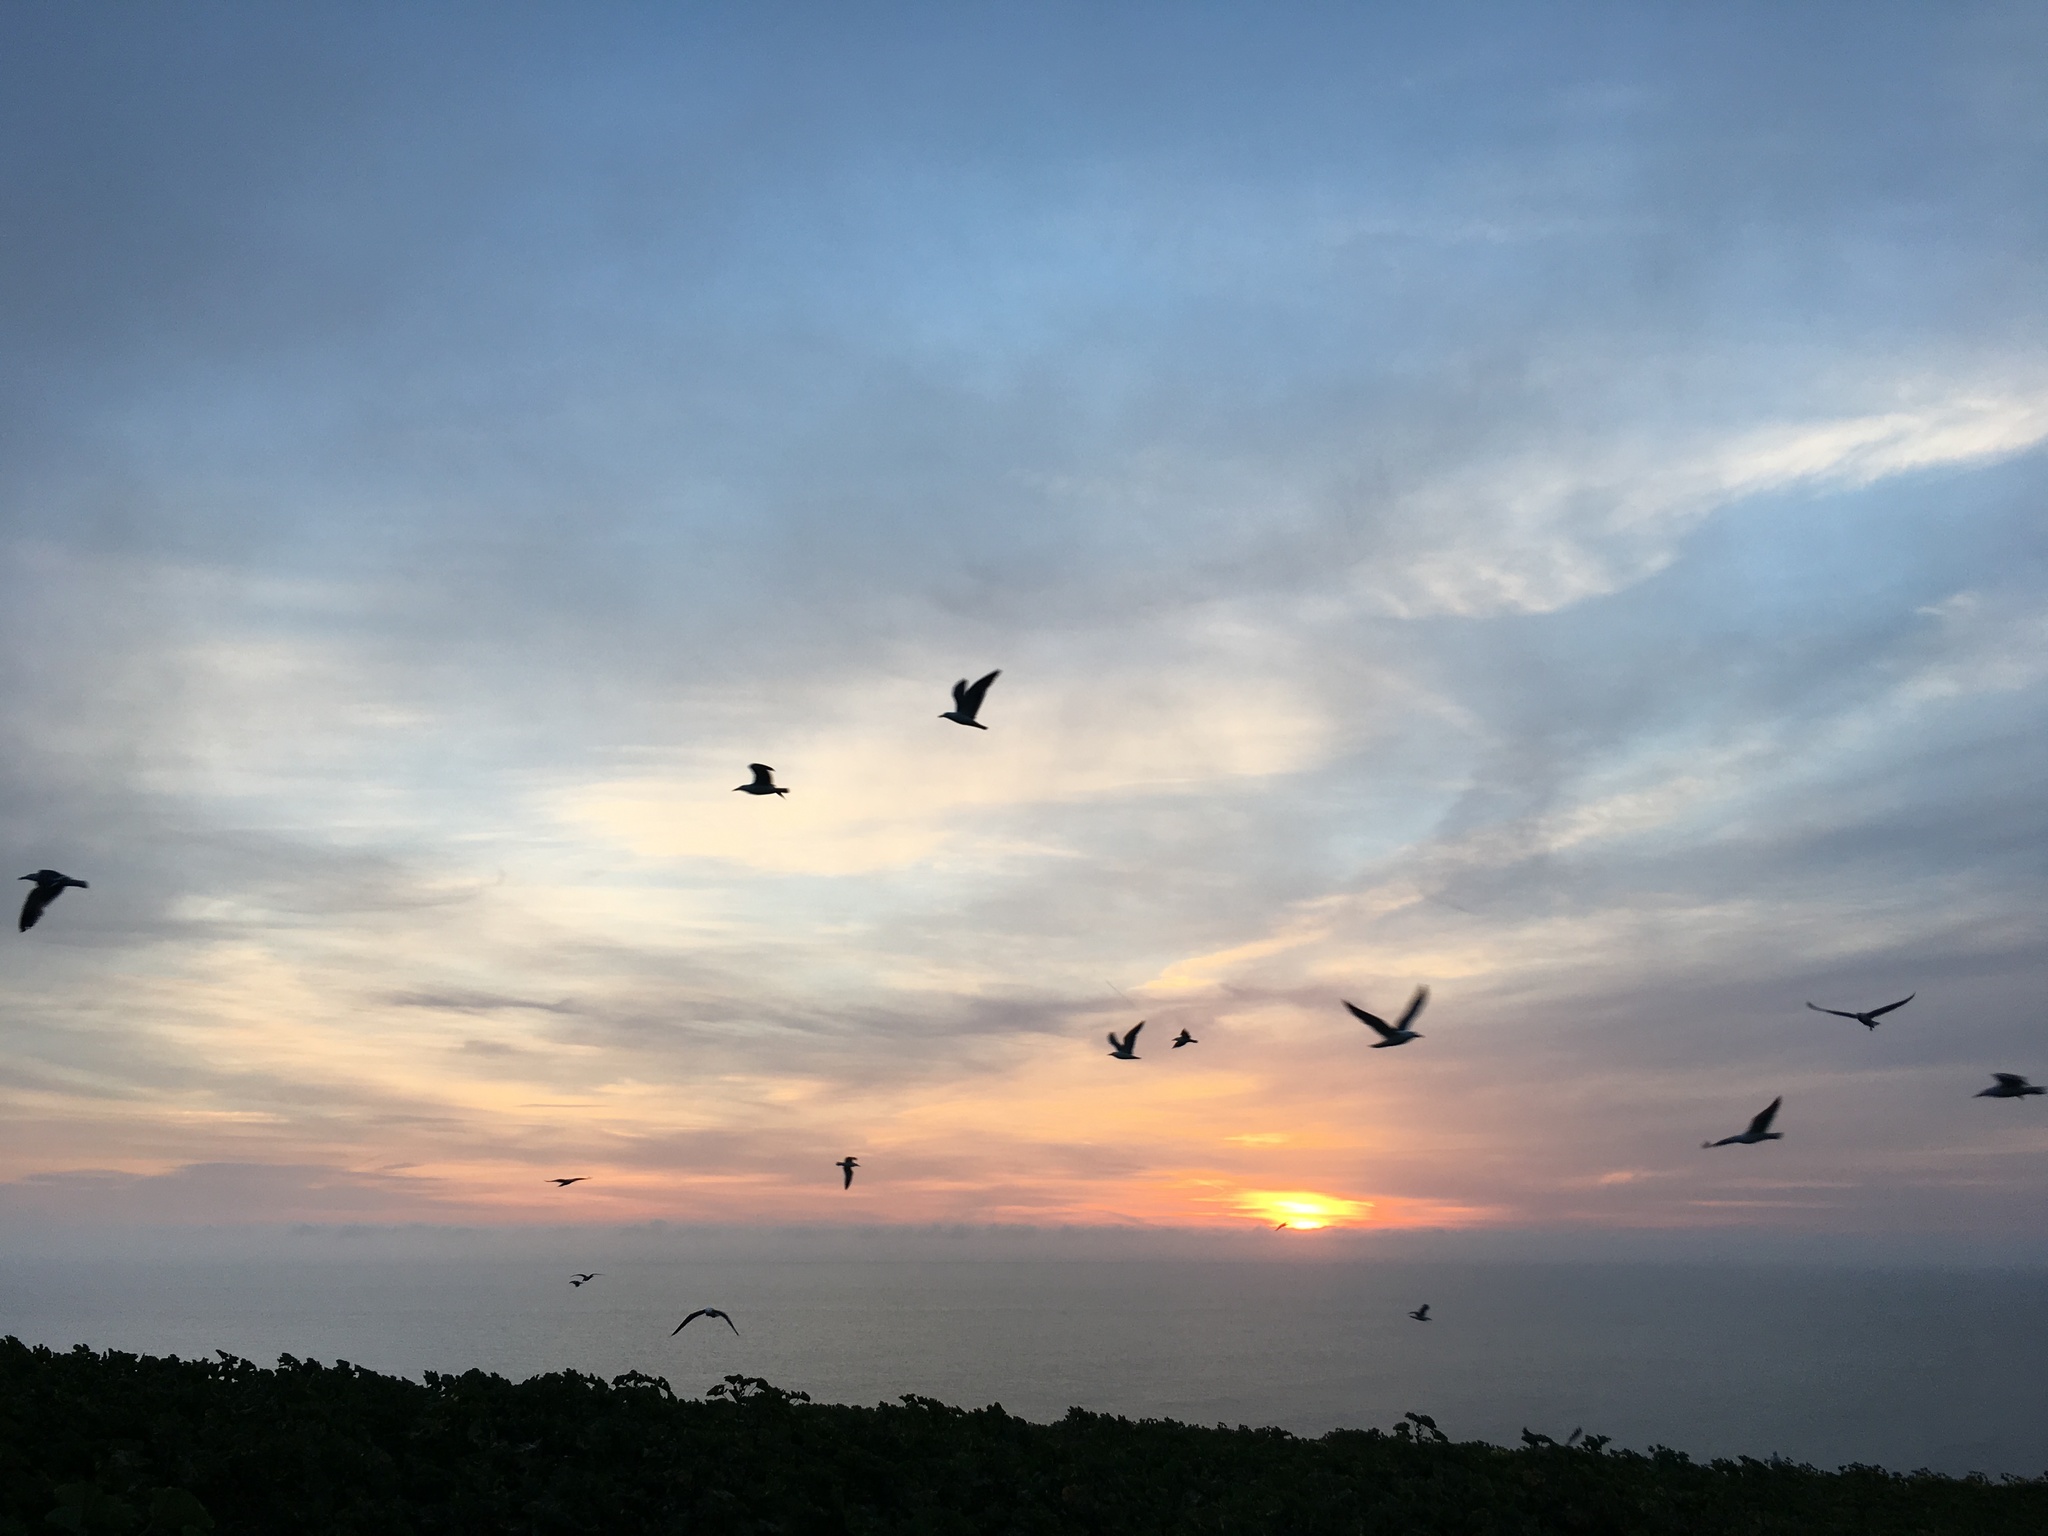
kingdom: Animalia
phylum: Chordata
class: Aves
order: Charadriiformes
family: Laridae
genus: Larus
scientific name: Larus occidentalis
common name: Western gull
